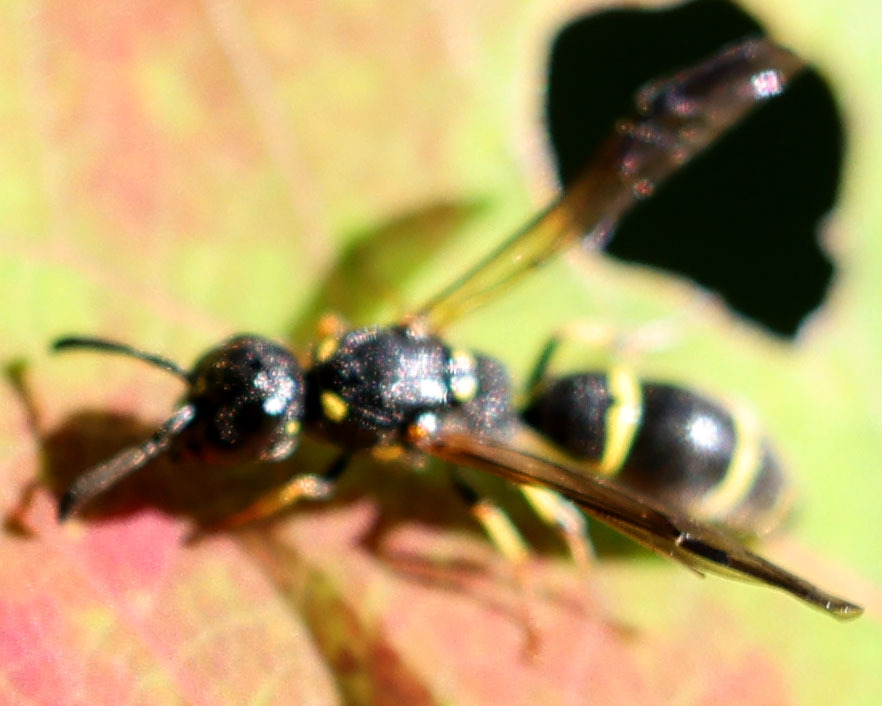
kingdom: Animalia
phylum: Arthropoda
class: Insecta
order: Hymenoptera
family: Eumenidae
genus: Symmorphus
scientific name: Symmorphus
